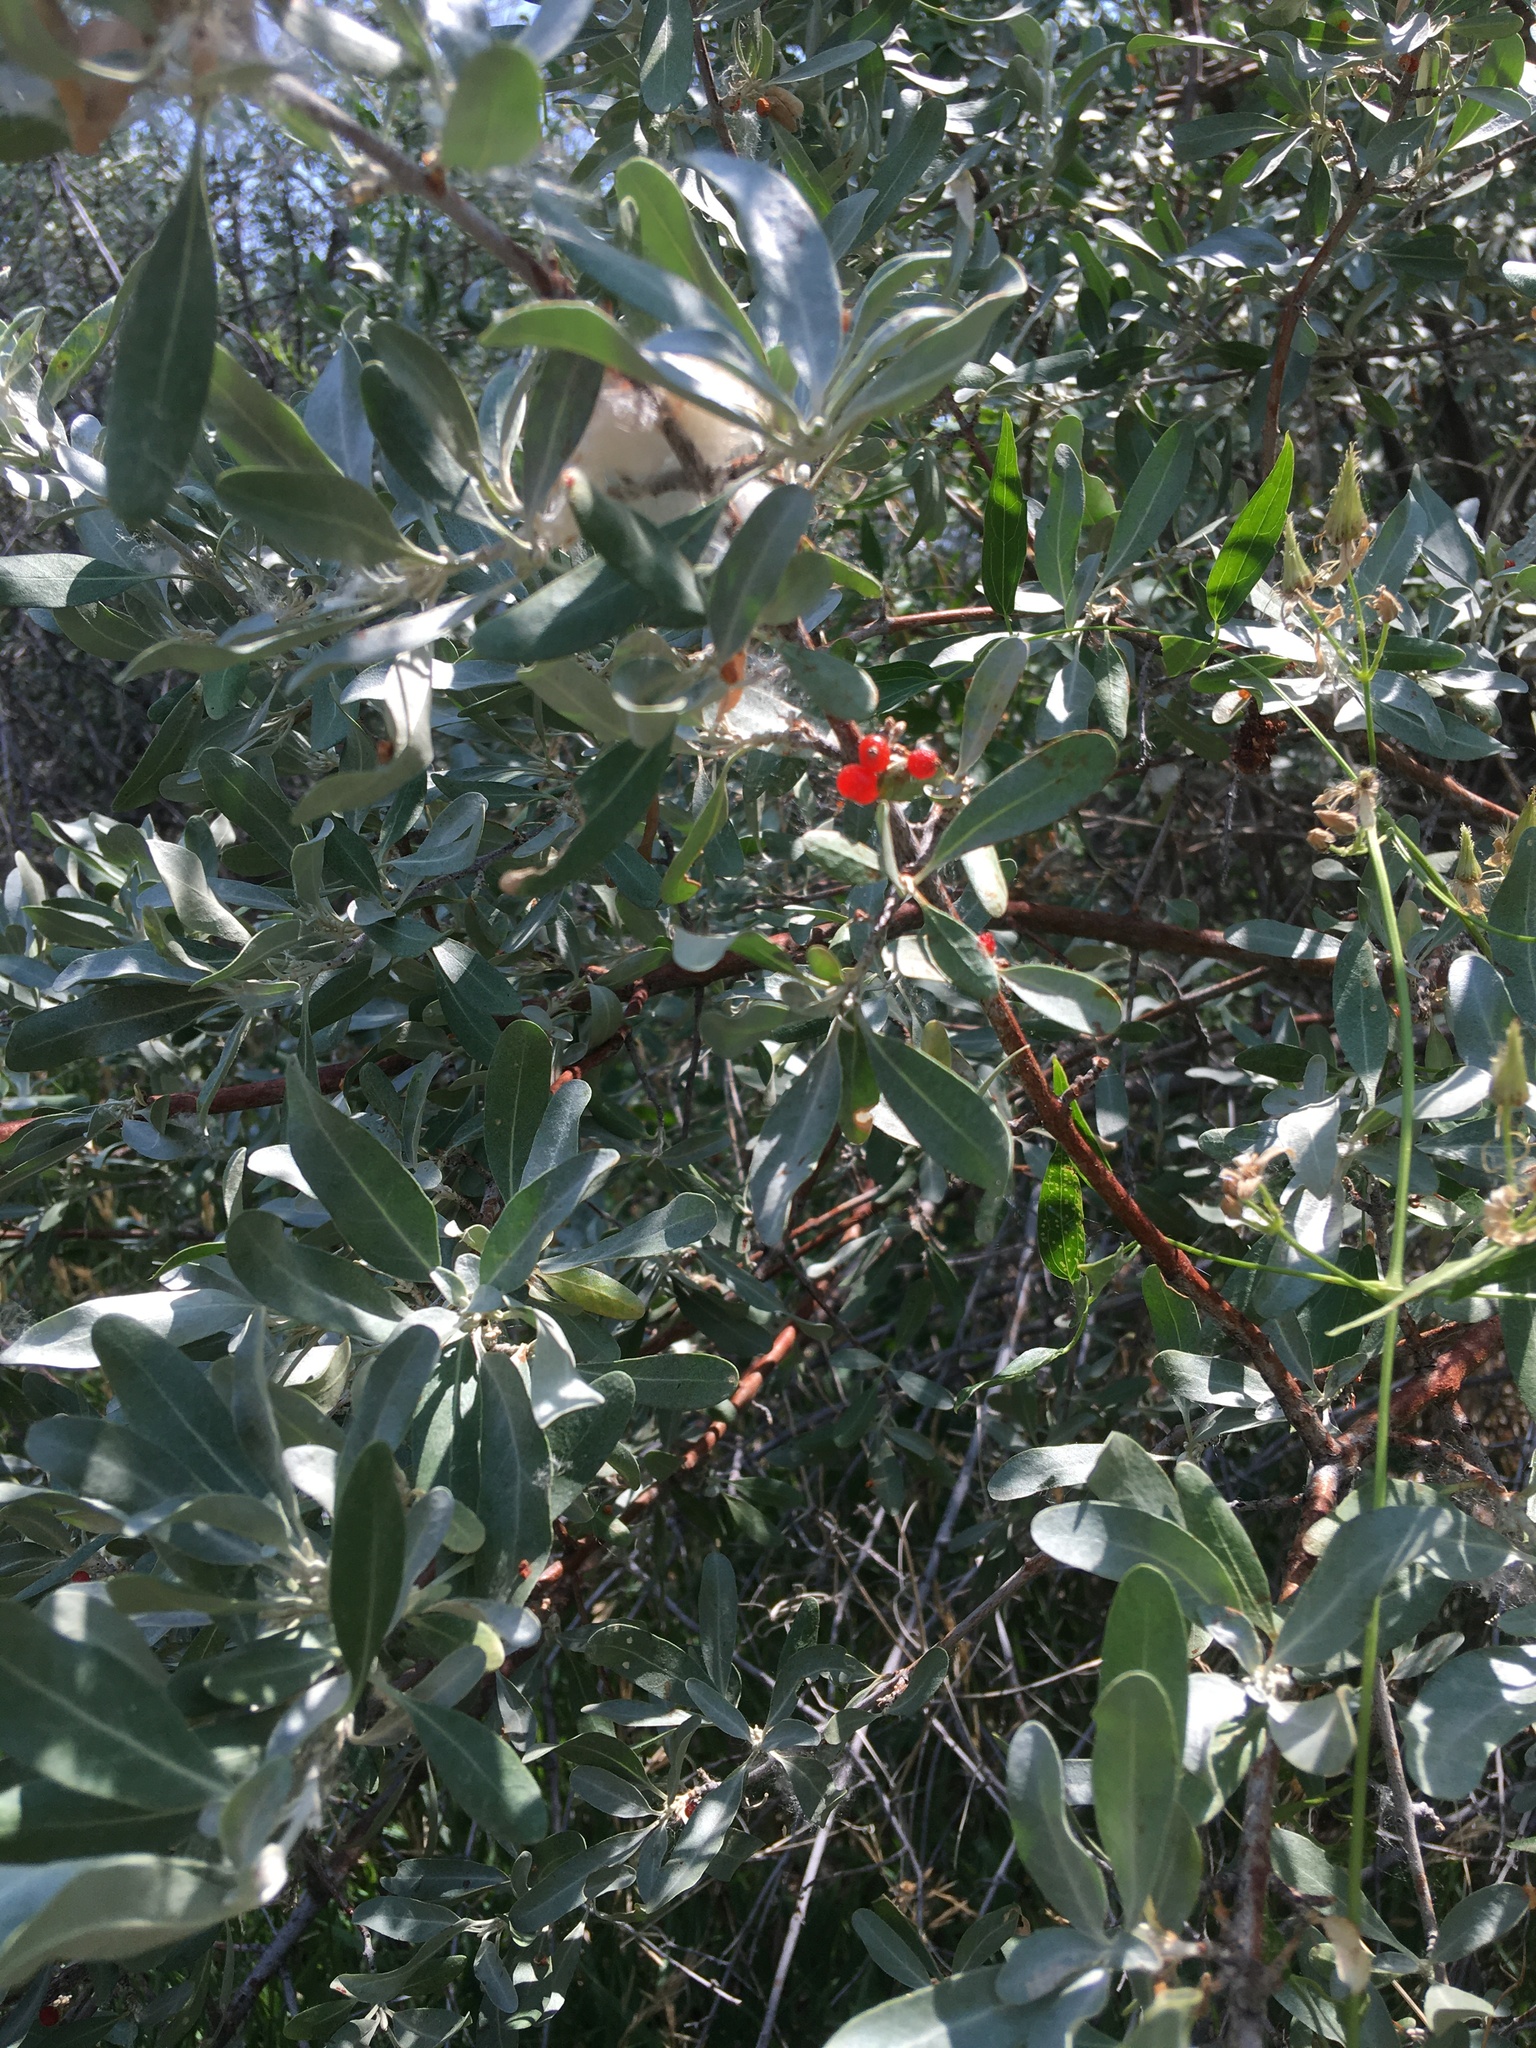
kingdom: Plantae
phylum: Tracheophyta
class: Magnoliopsida
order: Rosales
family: Elaeagnaceae
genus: Shepherdia
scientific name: Shepherdia argentea
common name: Silver buffaloberry
